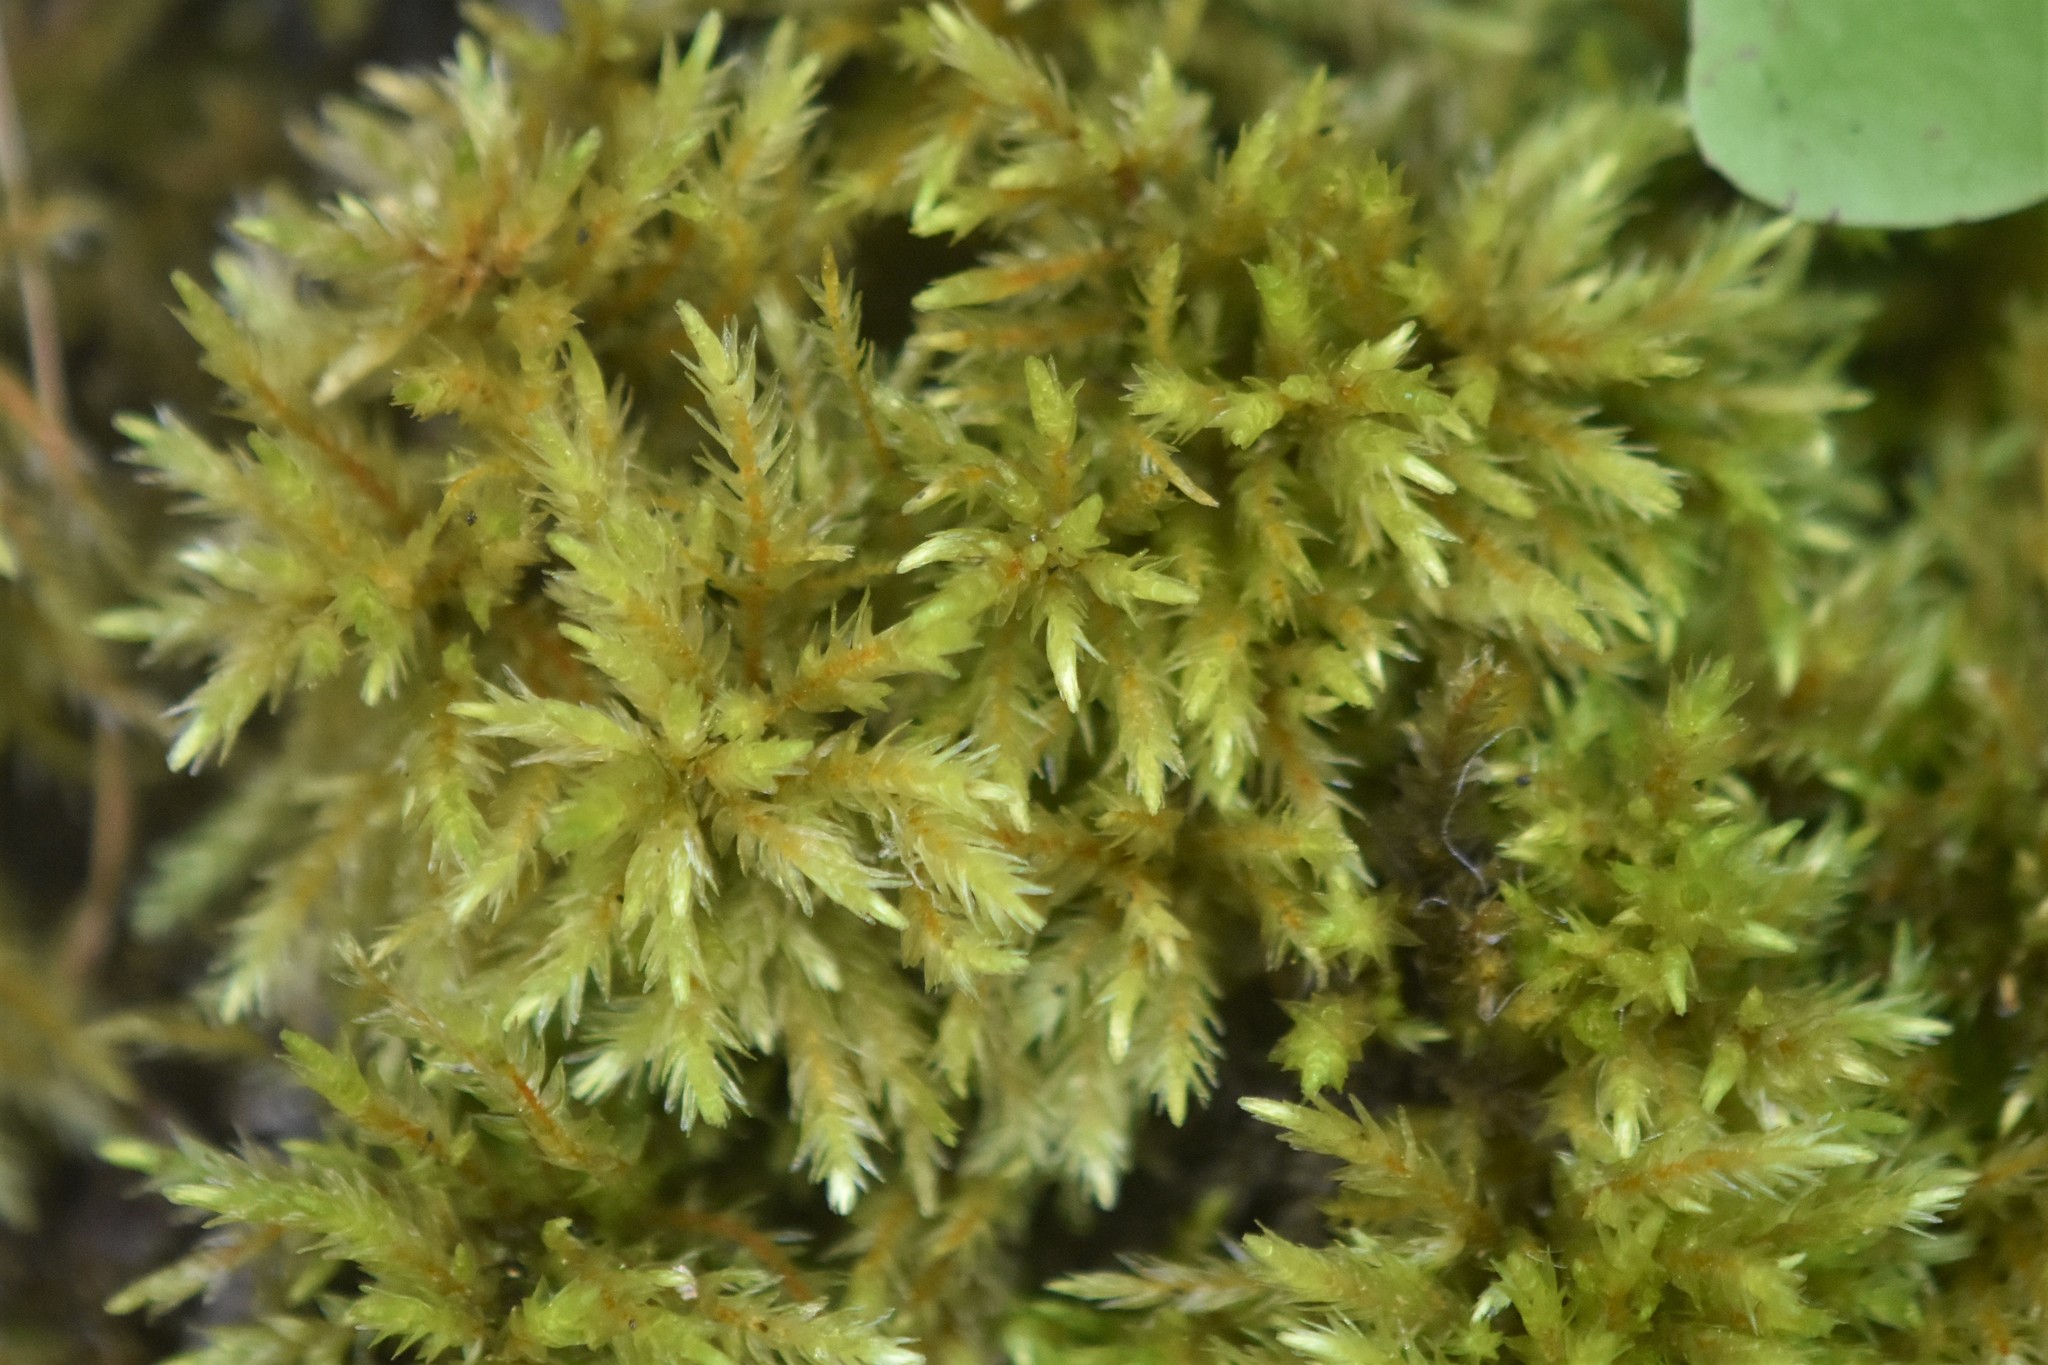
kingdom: Plantae
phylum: Bryophyta
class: Bryopsida
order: Hypnales
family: Climaciaceae
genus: Climacium
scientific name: Climacium dendroides
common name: Northern tree moss
